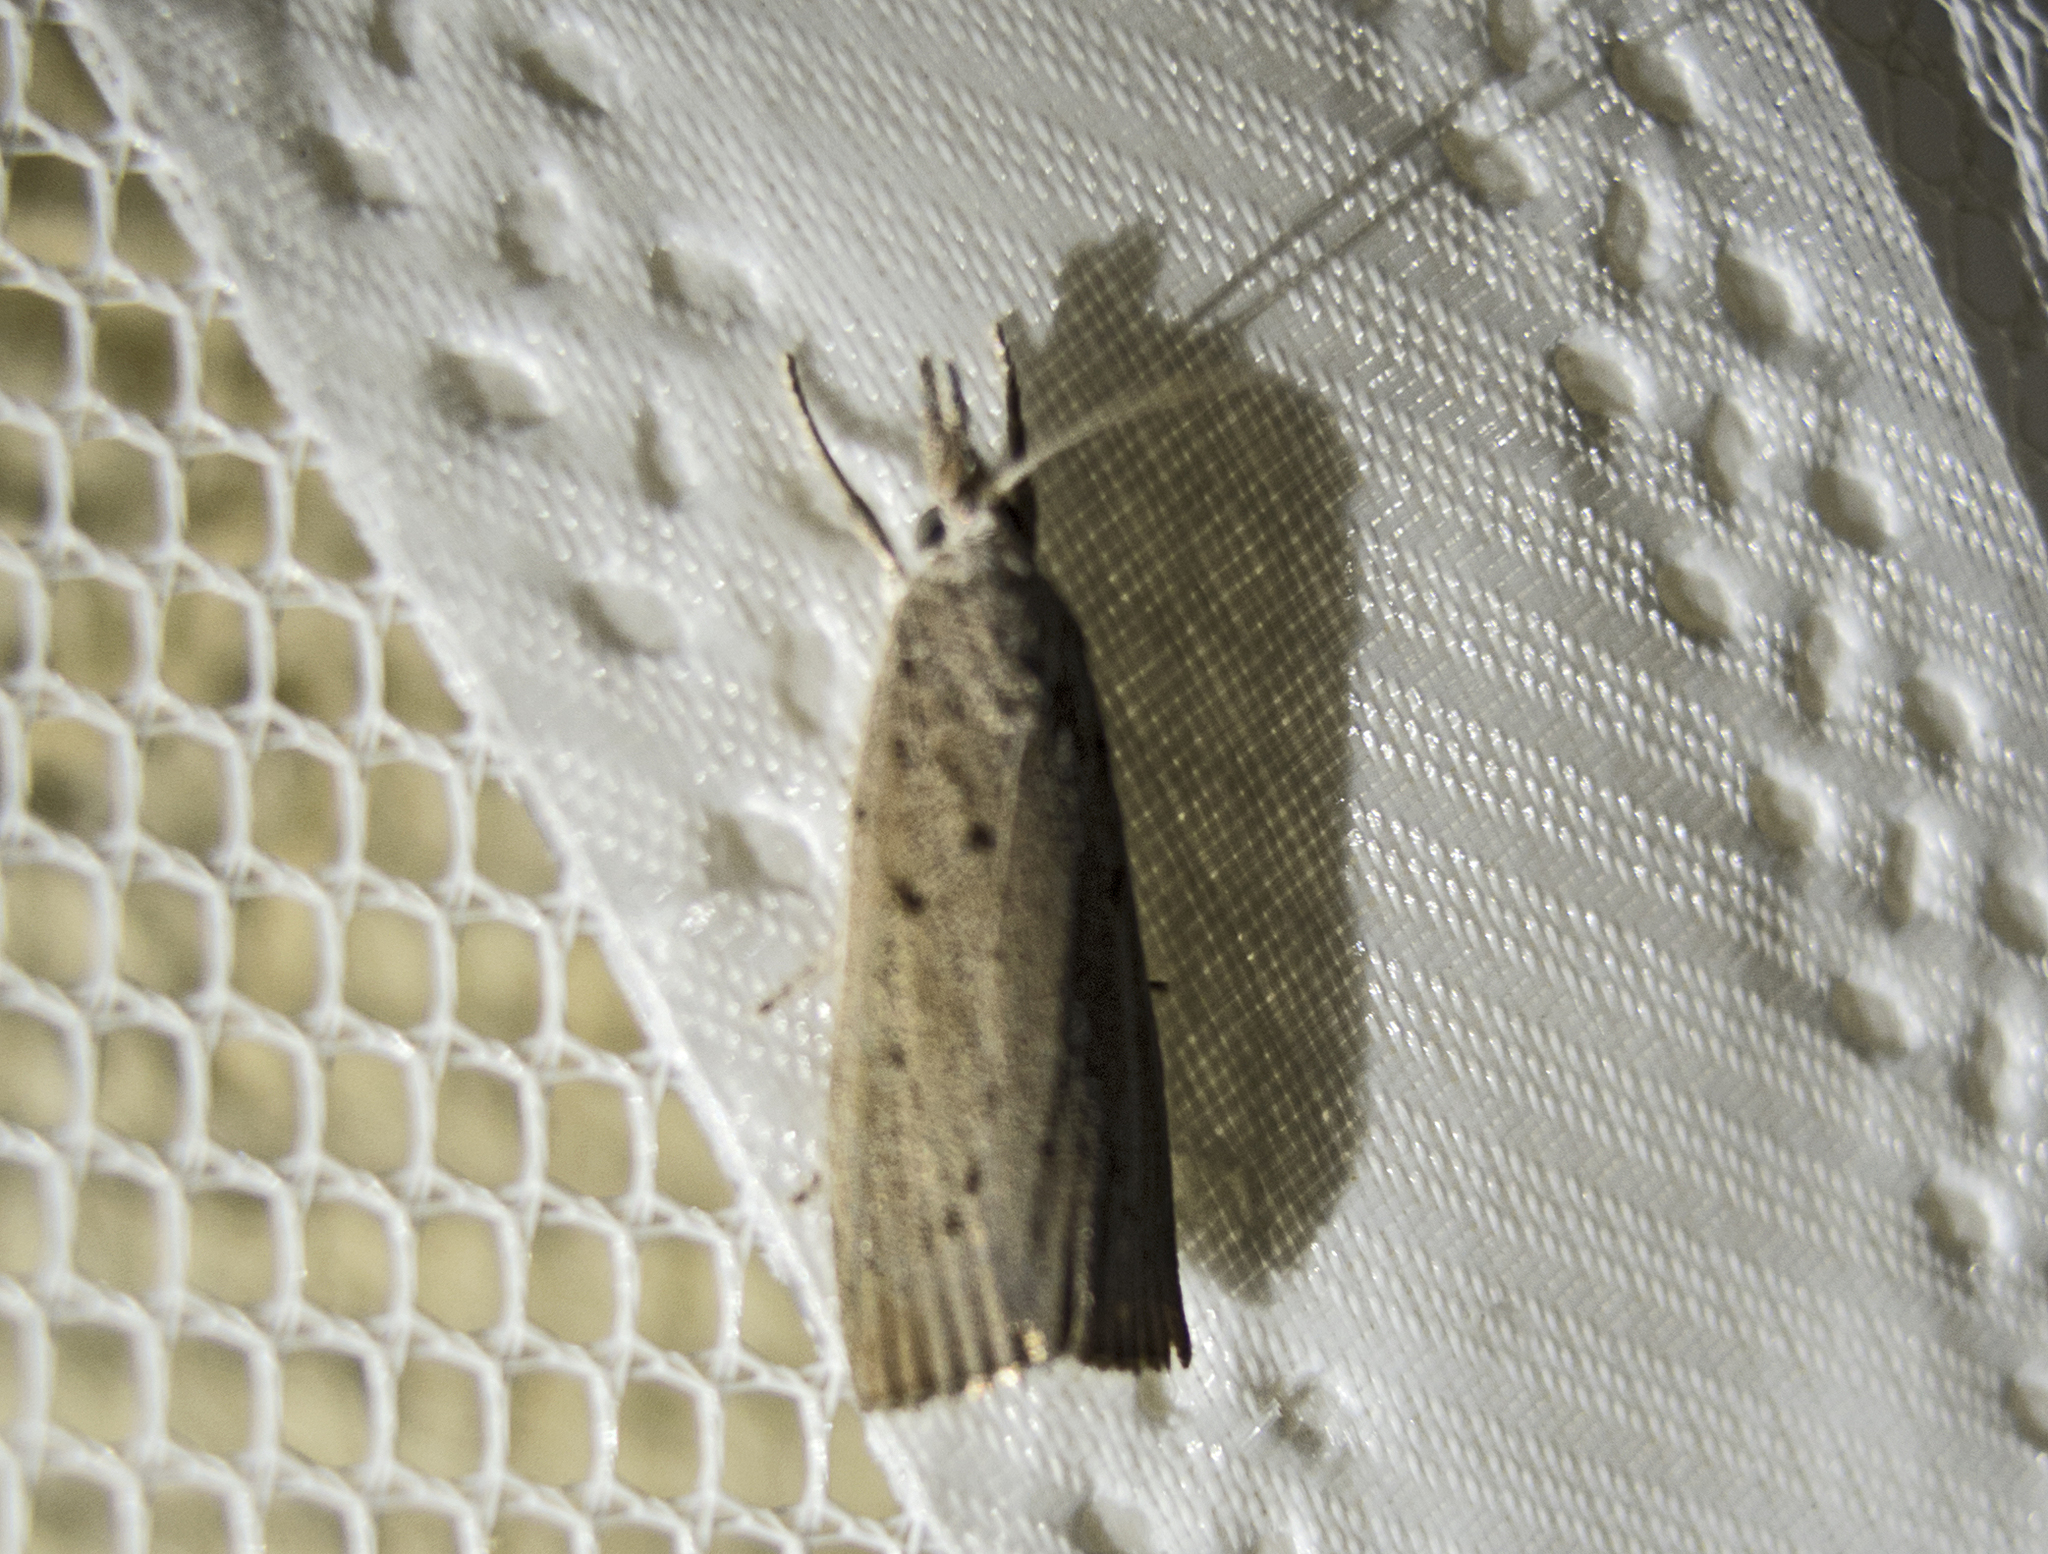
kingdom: Animalia
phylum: Arthropoda
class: Insecta
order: Lepidoptera
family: Crambidae
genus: Calamotropha
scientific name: Calamotropha paludella
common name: Bulrush veneer
